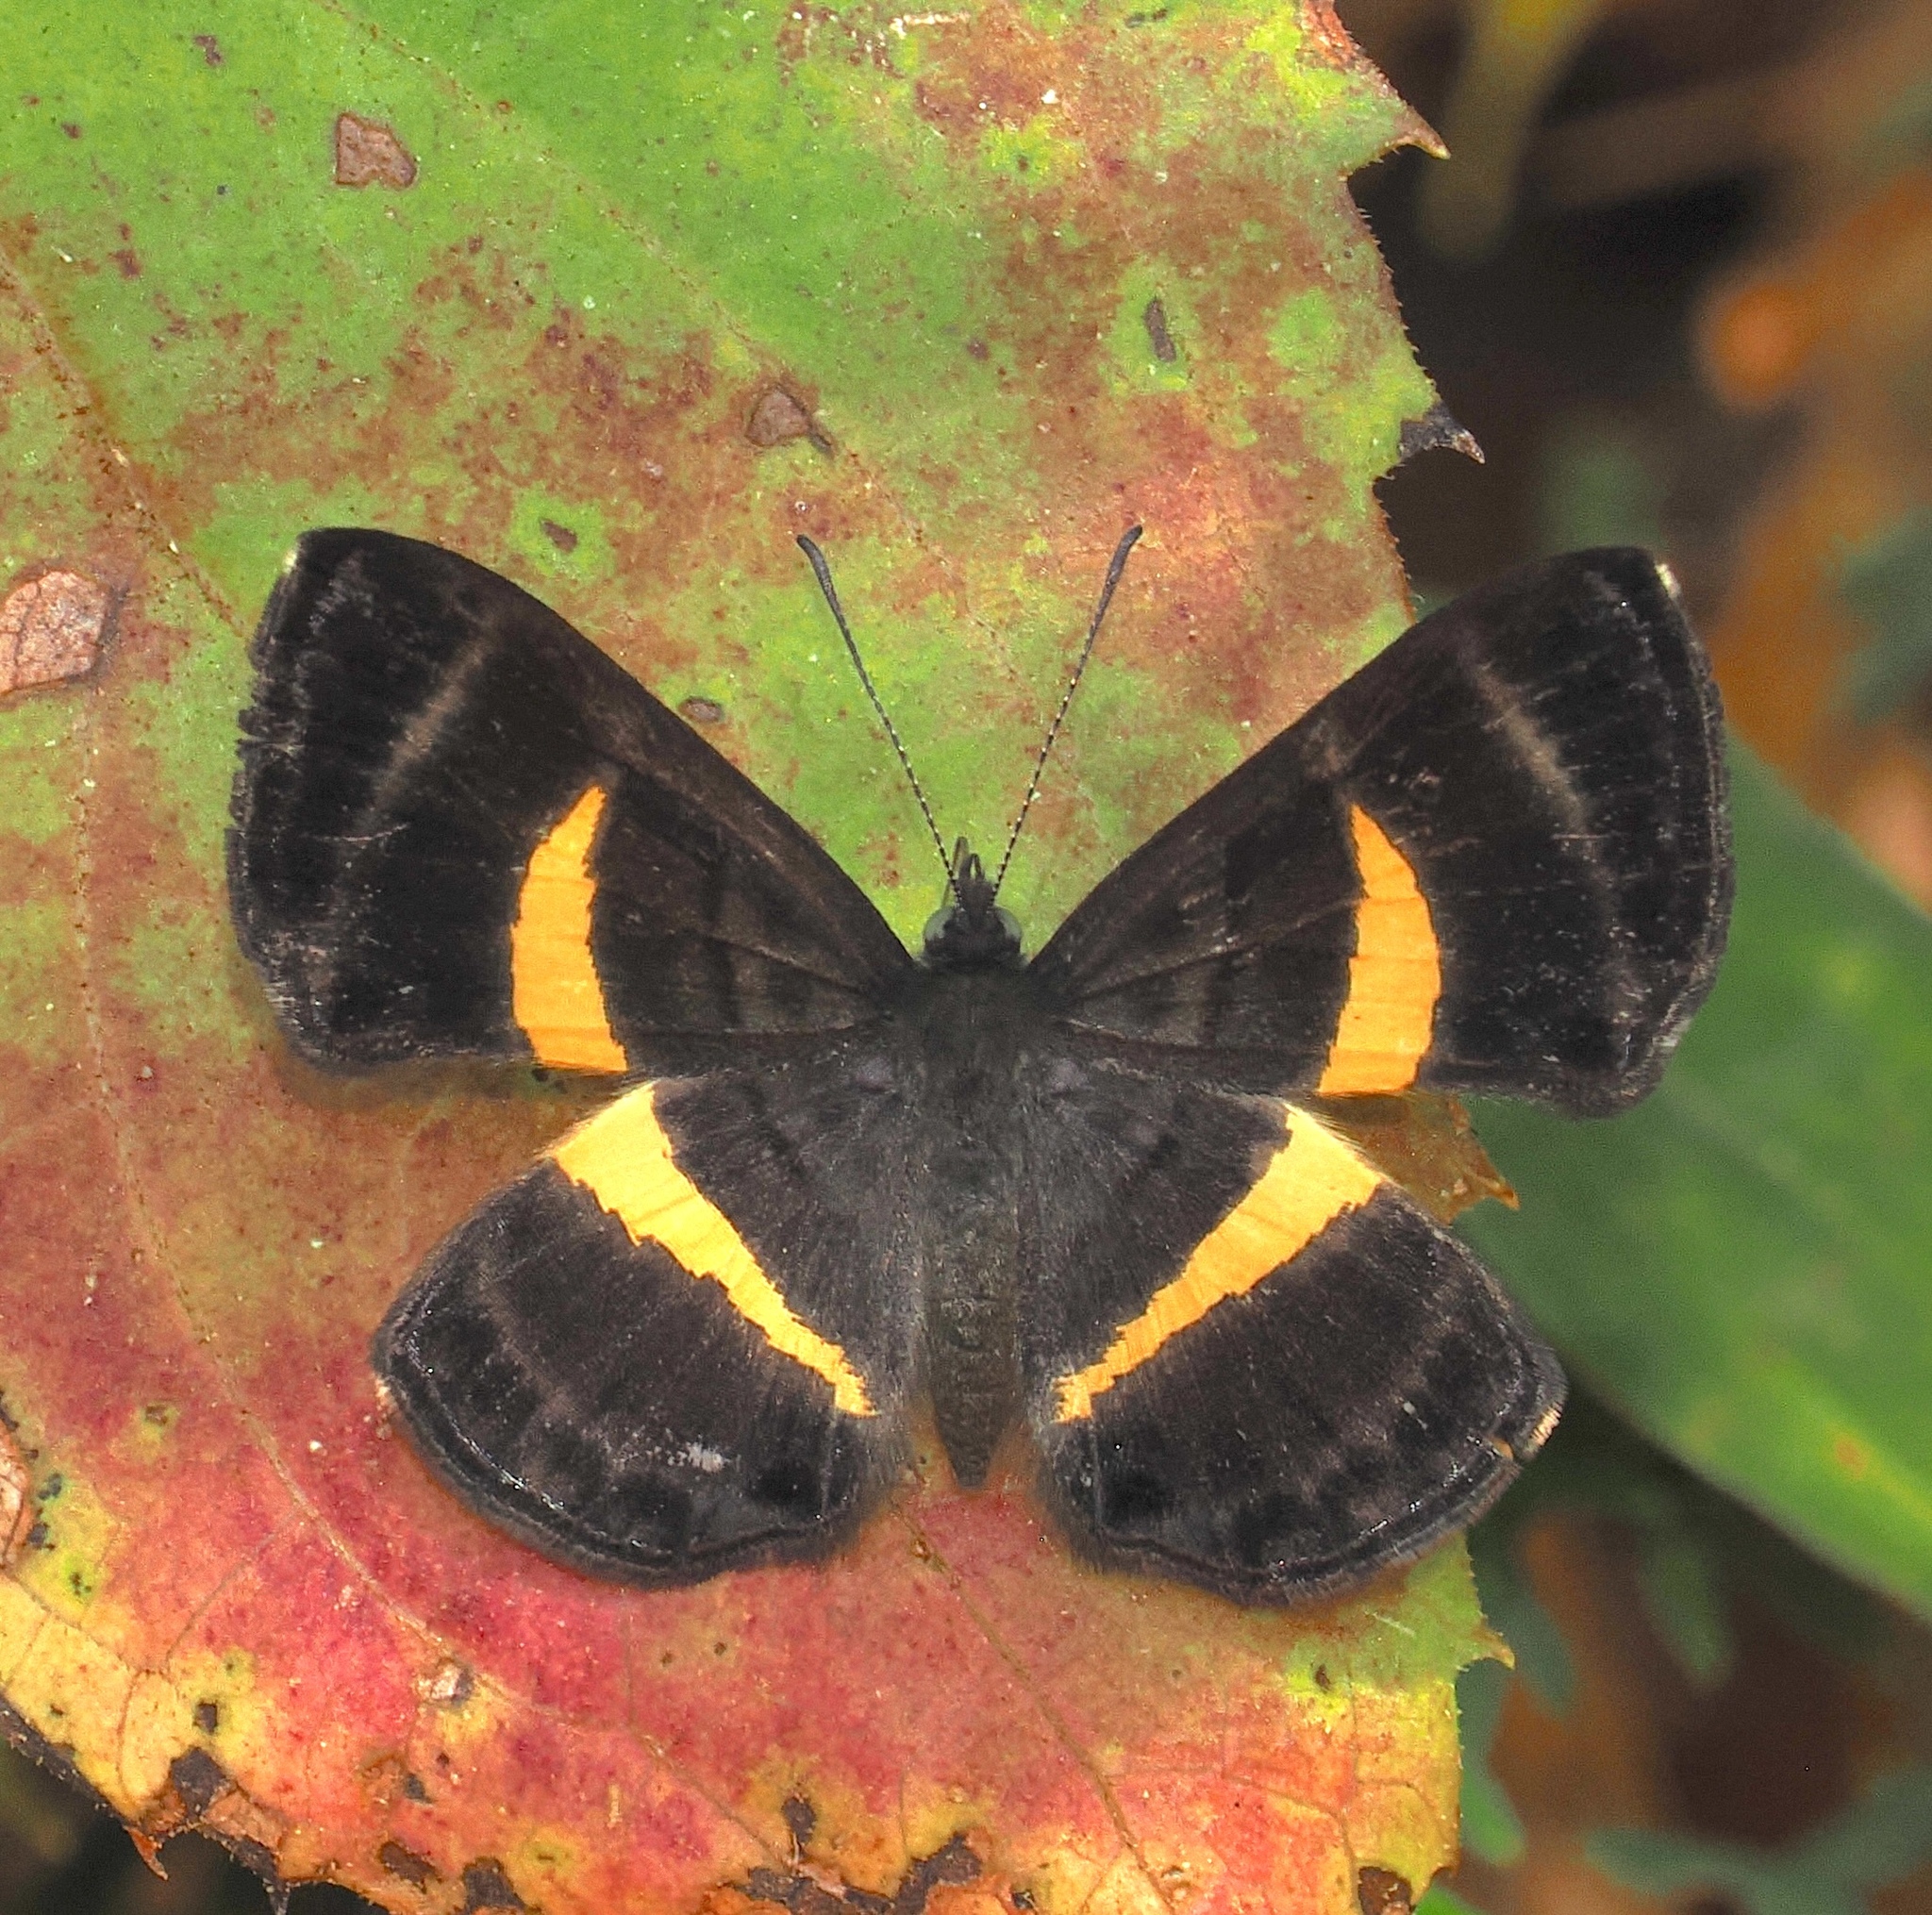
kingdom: Animalia
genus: Baeotis
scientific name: Baeotis melanis
